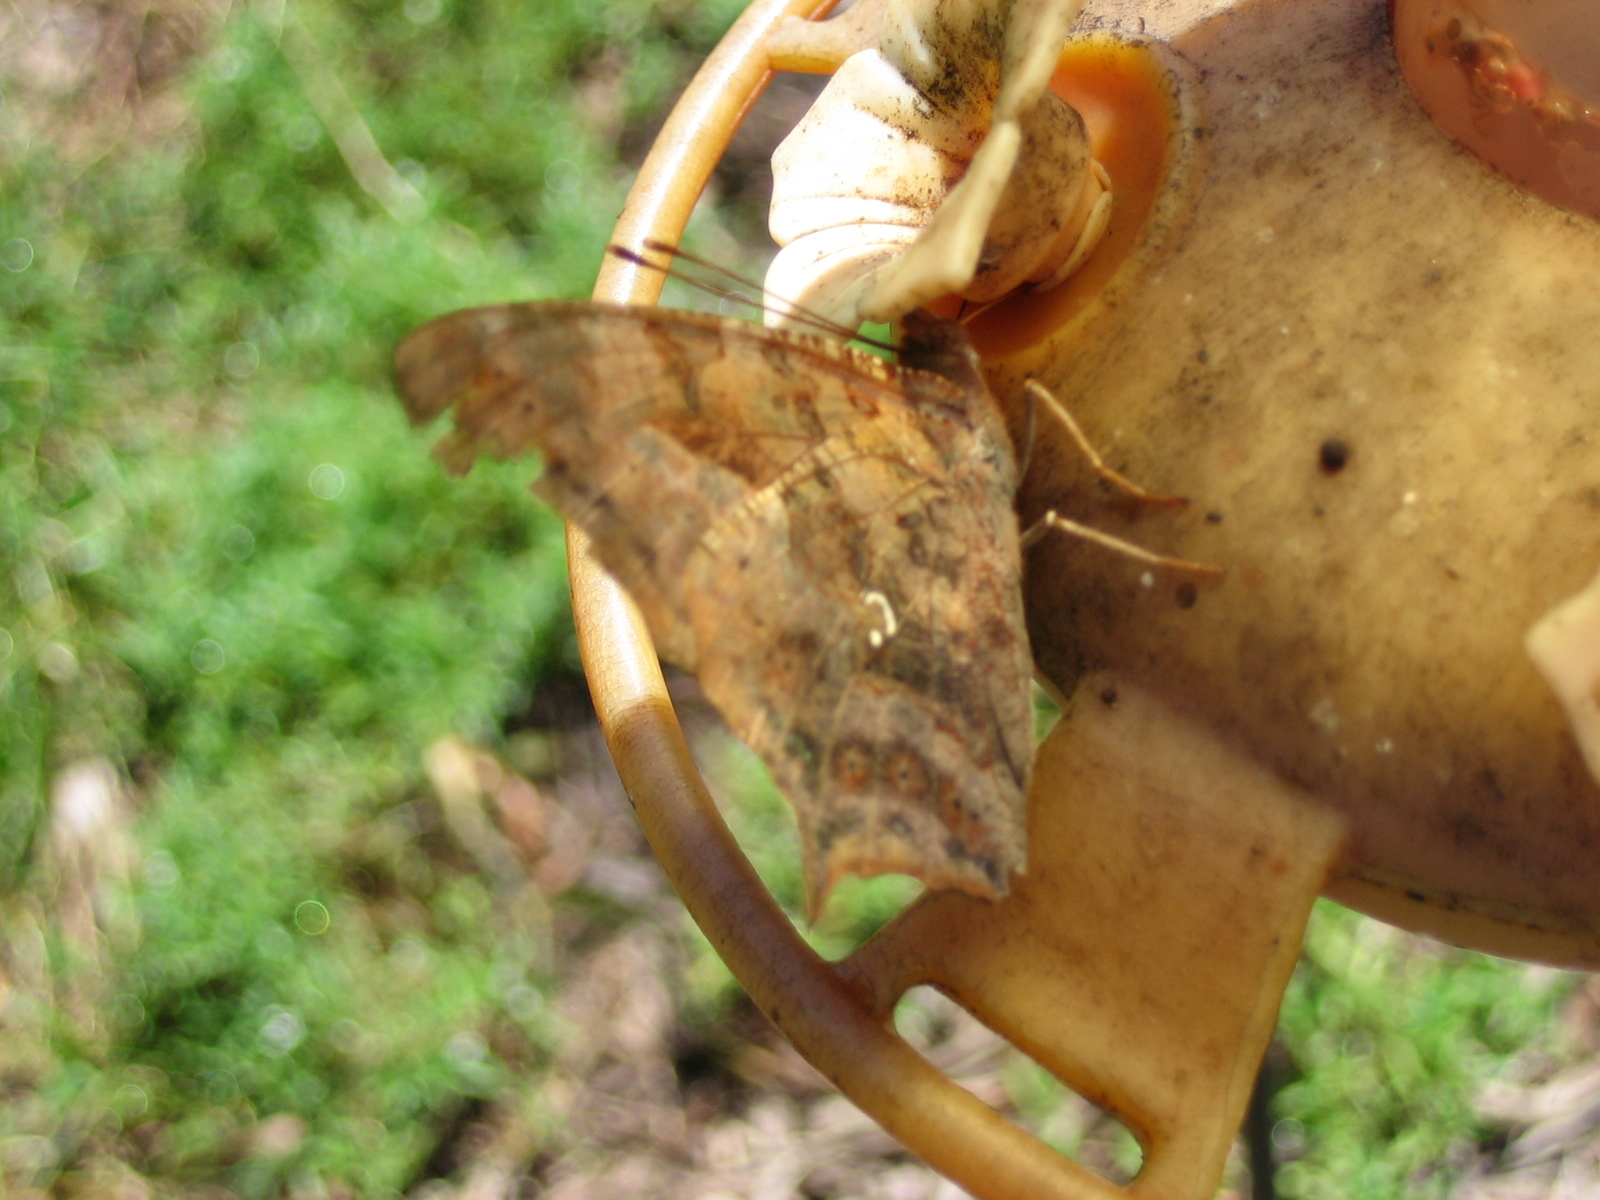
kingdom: Animalia
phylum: Arthropoda
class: Insecta
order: Lepidoptera
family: Nymphalidae
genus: Polygonia
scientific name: Polygonia interrogationis
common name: Question mark
